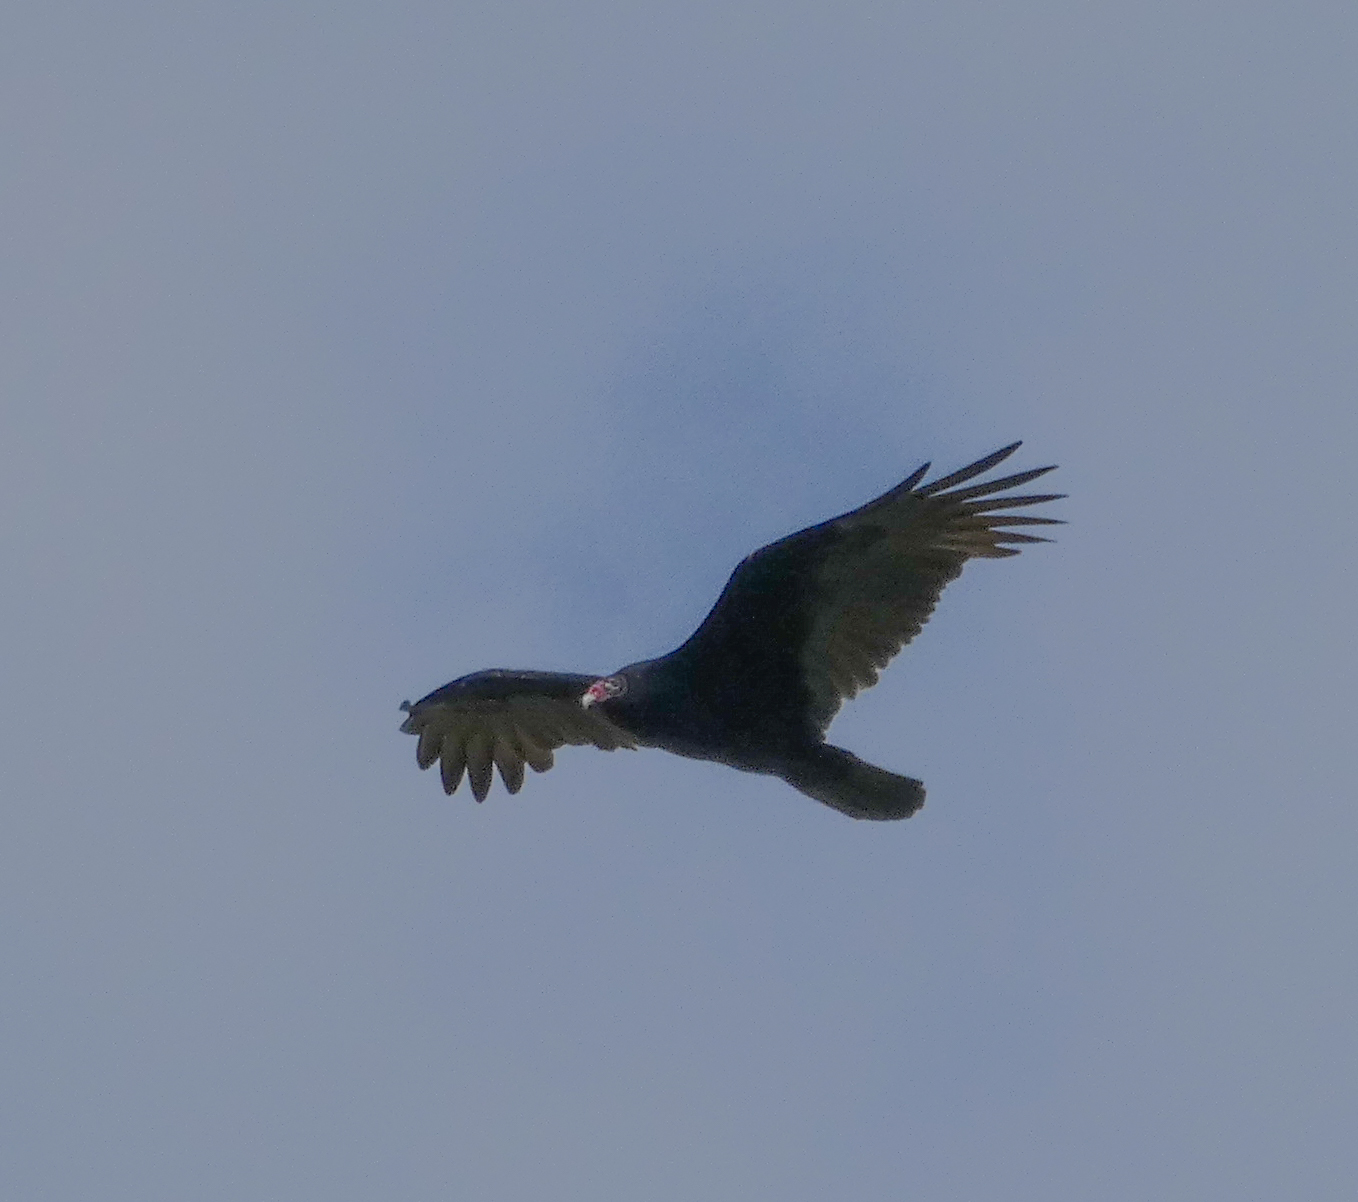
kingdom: Animalia
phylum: Chordata
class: Aves
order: Accipitriformes
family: Cathartidae
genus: Cathartes
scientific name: Cathartes aura
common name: Turkey vulture
